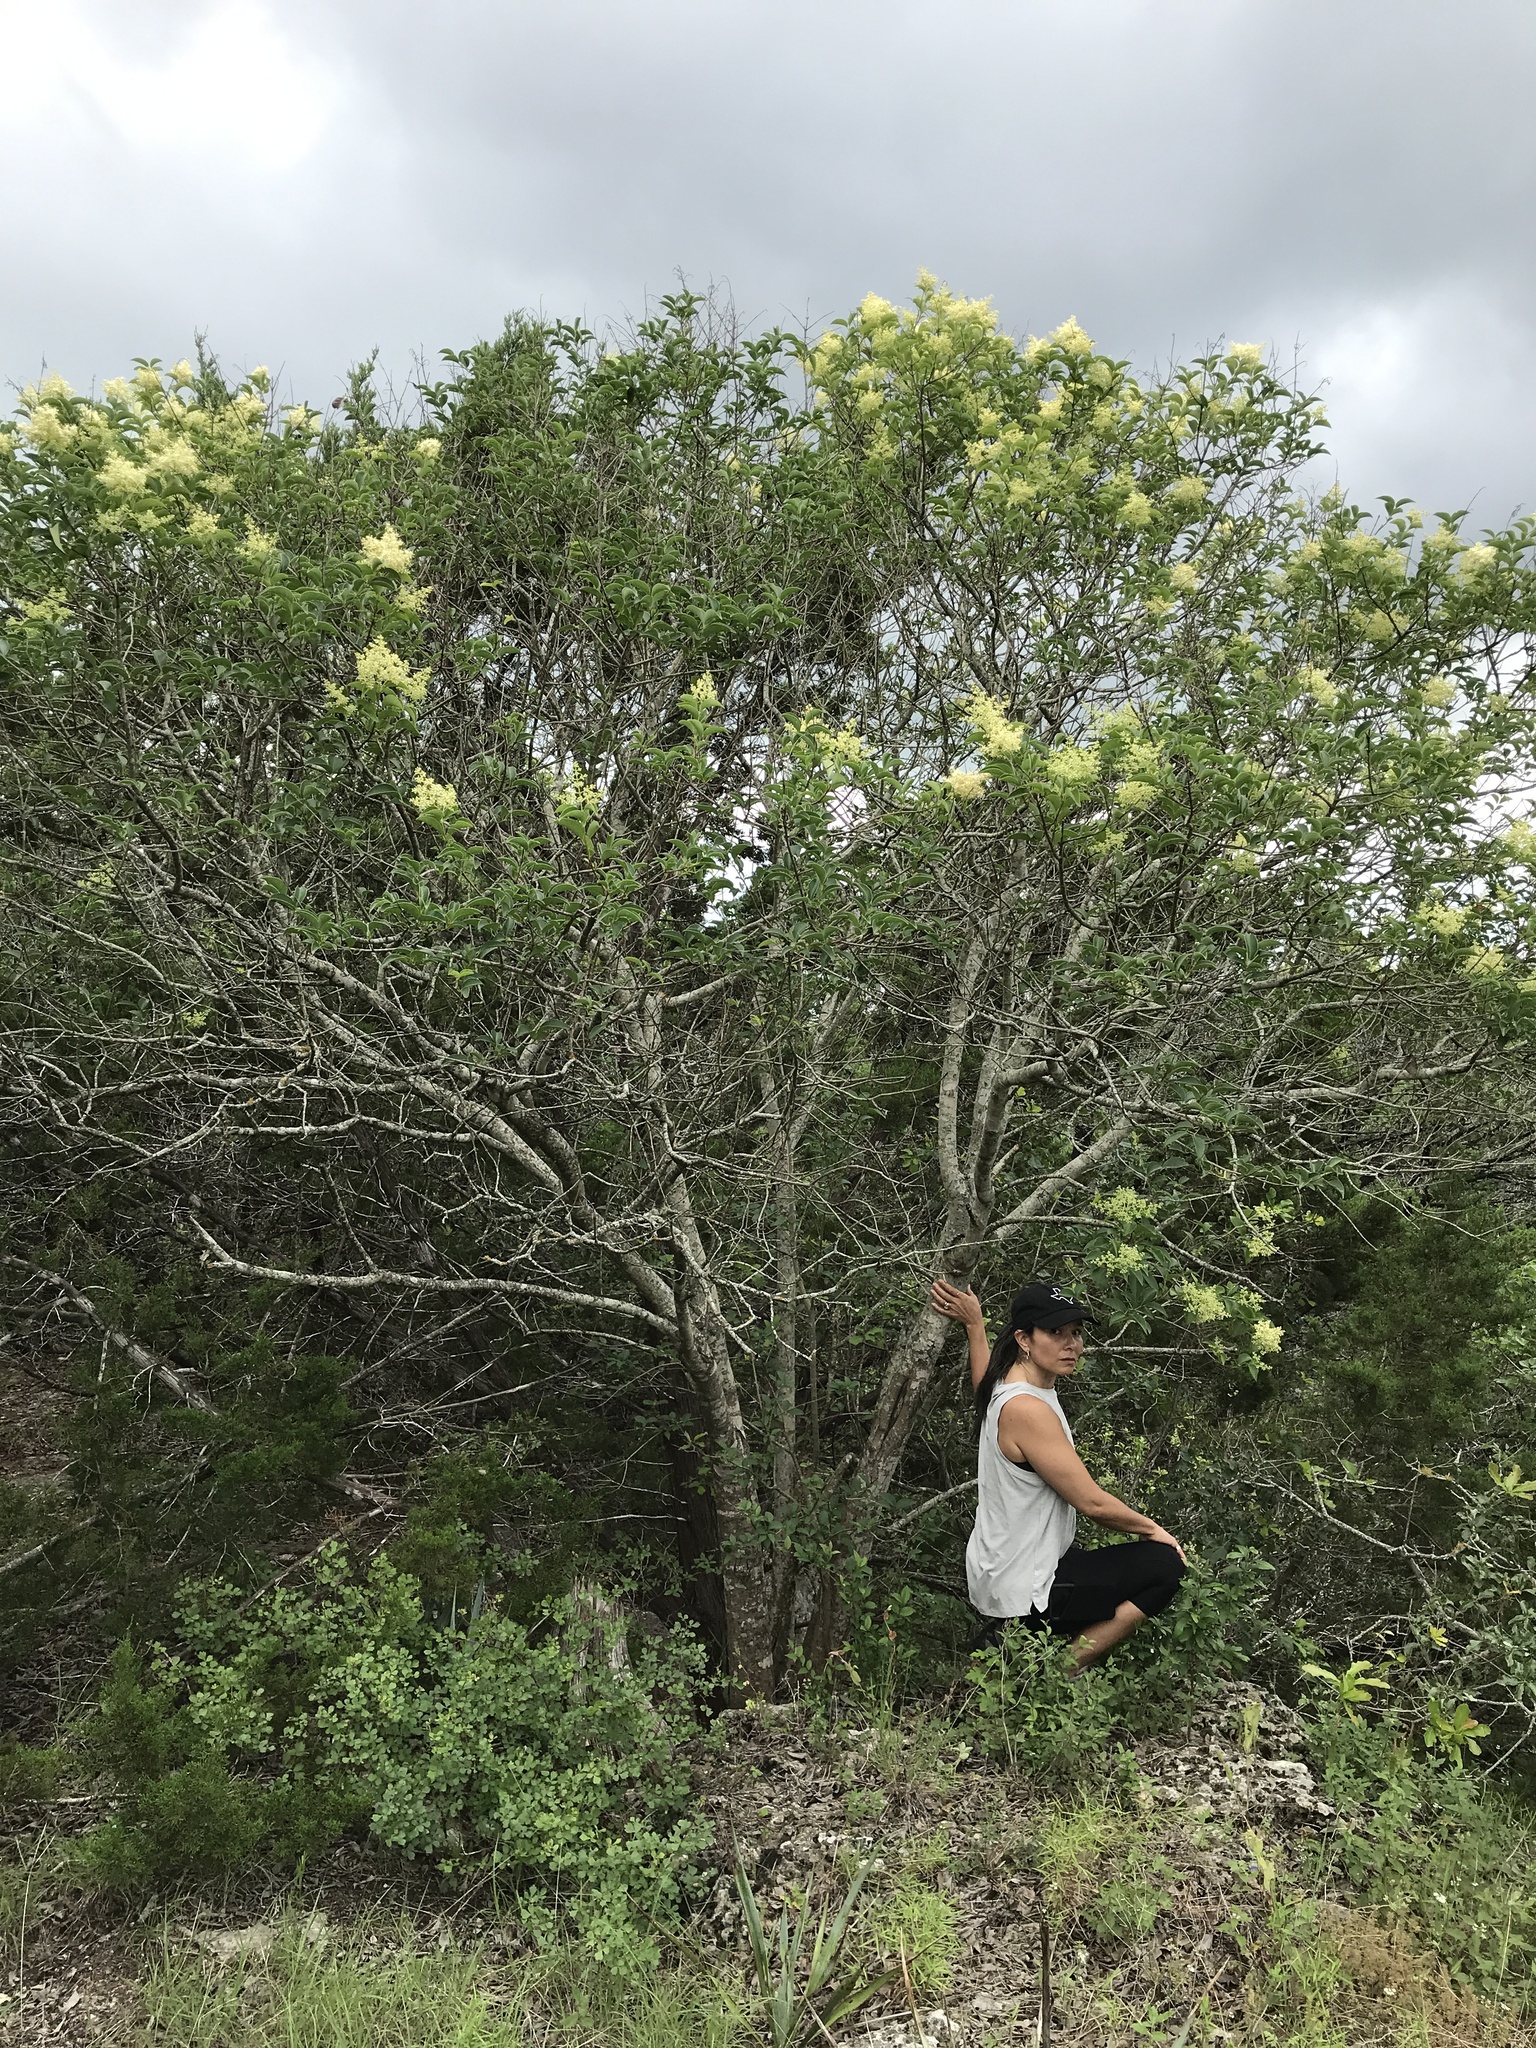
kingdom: Plantae
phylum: Tracheophyta
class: Magnoliopsida
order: Lamiales
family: Oleaceae
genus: Ligustrum
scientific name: Ligustrum lucidum
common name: Glossy privet
